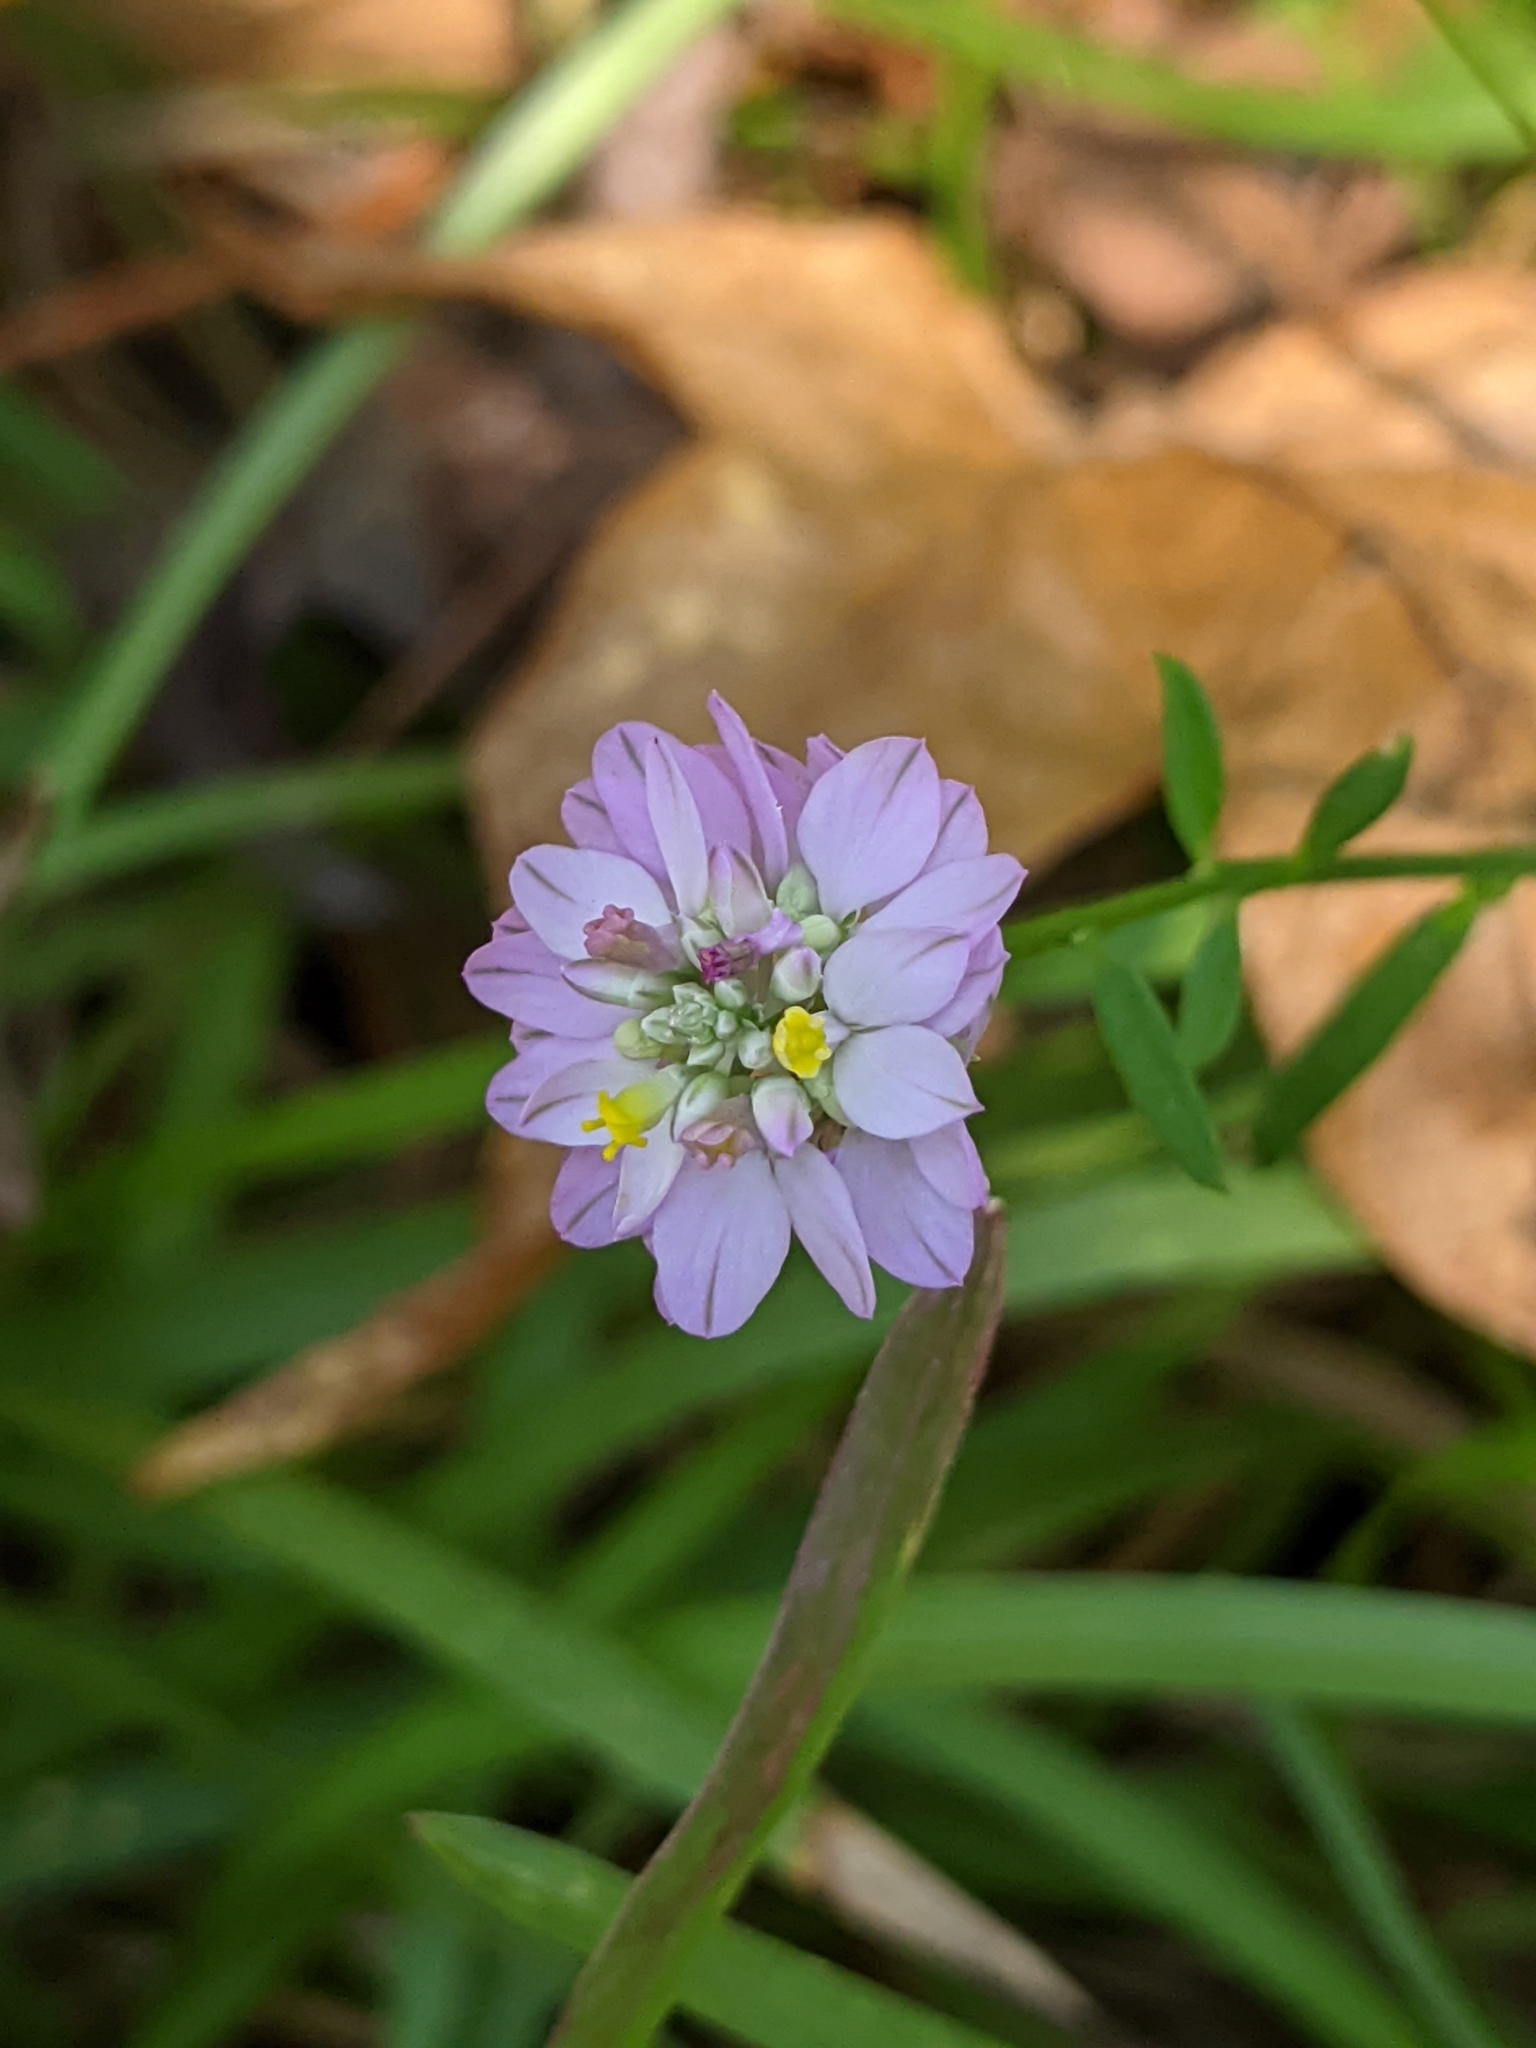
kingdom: Plantae
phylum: Tracheophyta
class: Magnoliopsida
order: Fabales
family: Polygalaceae
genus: Polygala
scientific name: Polygala mariana
